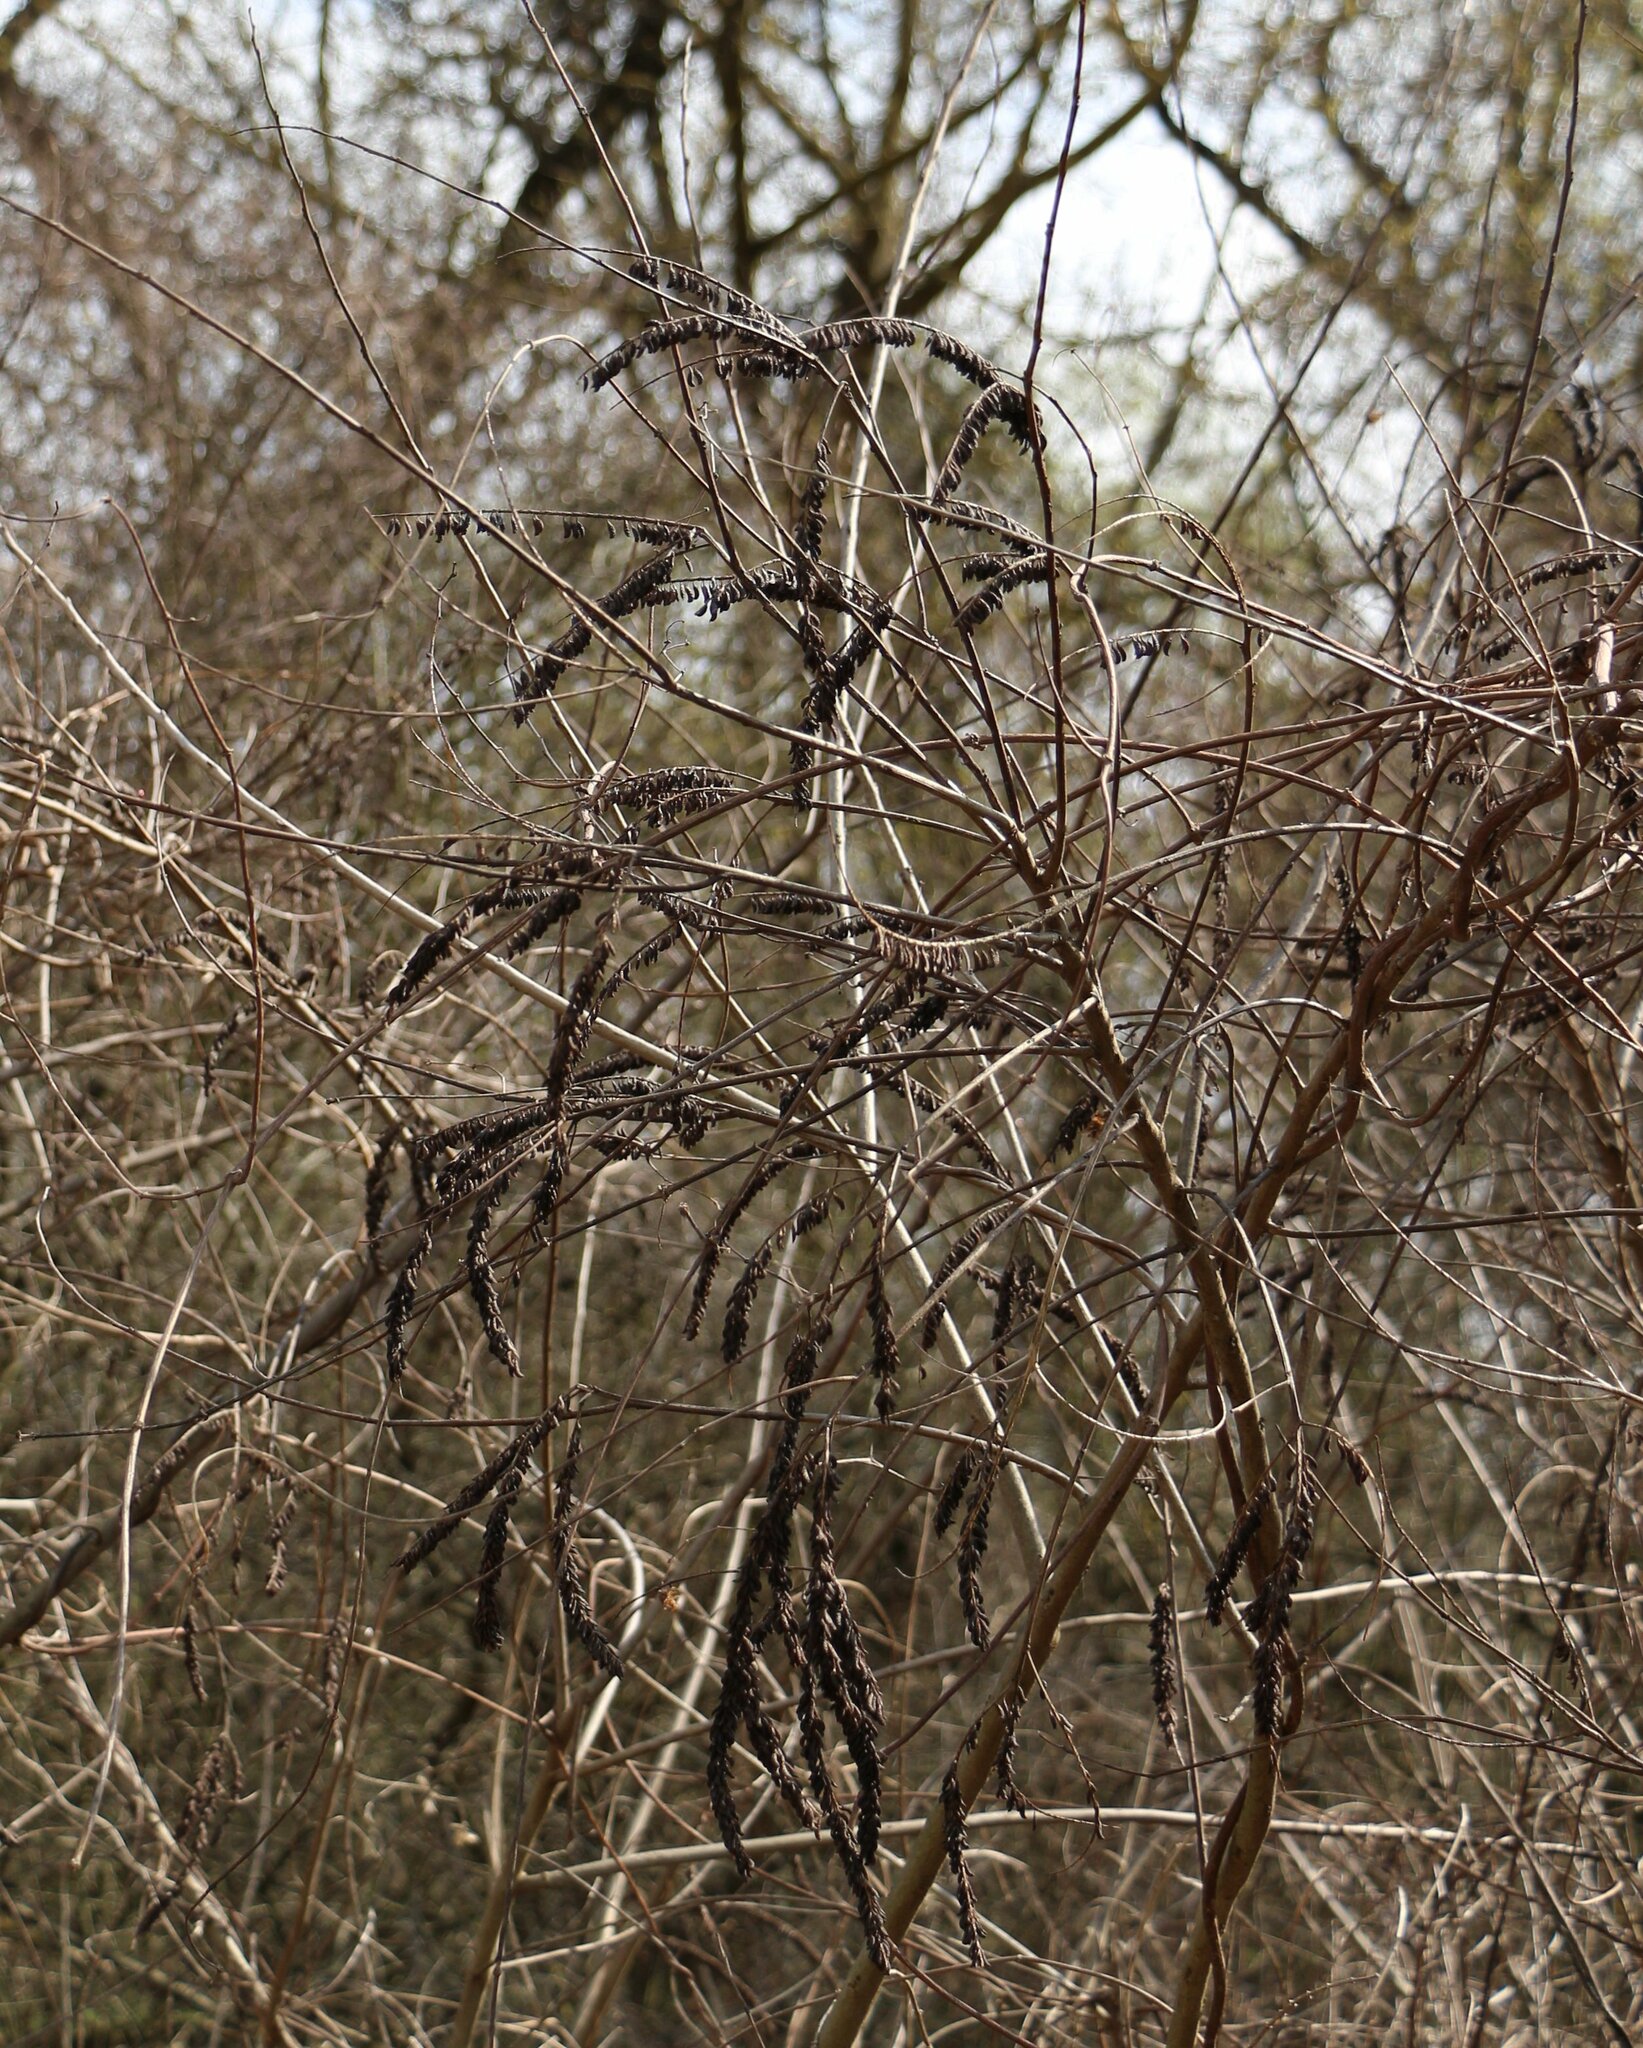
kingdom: Plantae
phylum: Tracheophyta
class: Magnoliopsida
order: Fabales
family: Fabaceae
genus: Amorpha
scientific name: Amorpha fruticosa
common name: False indigo
